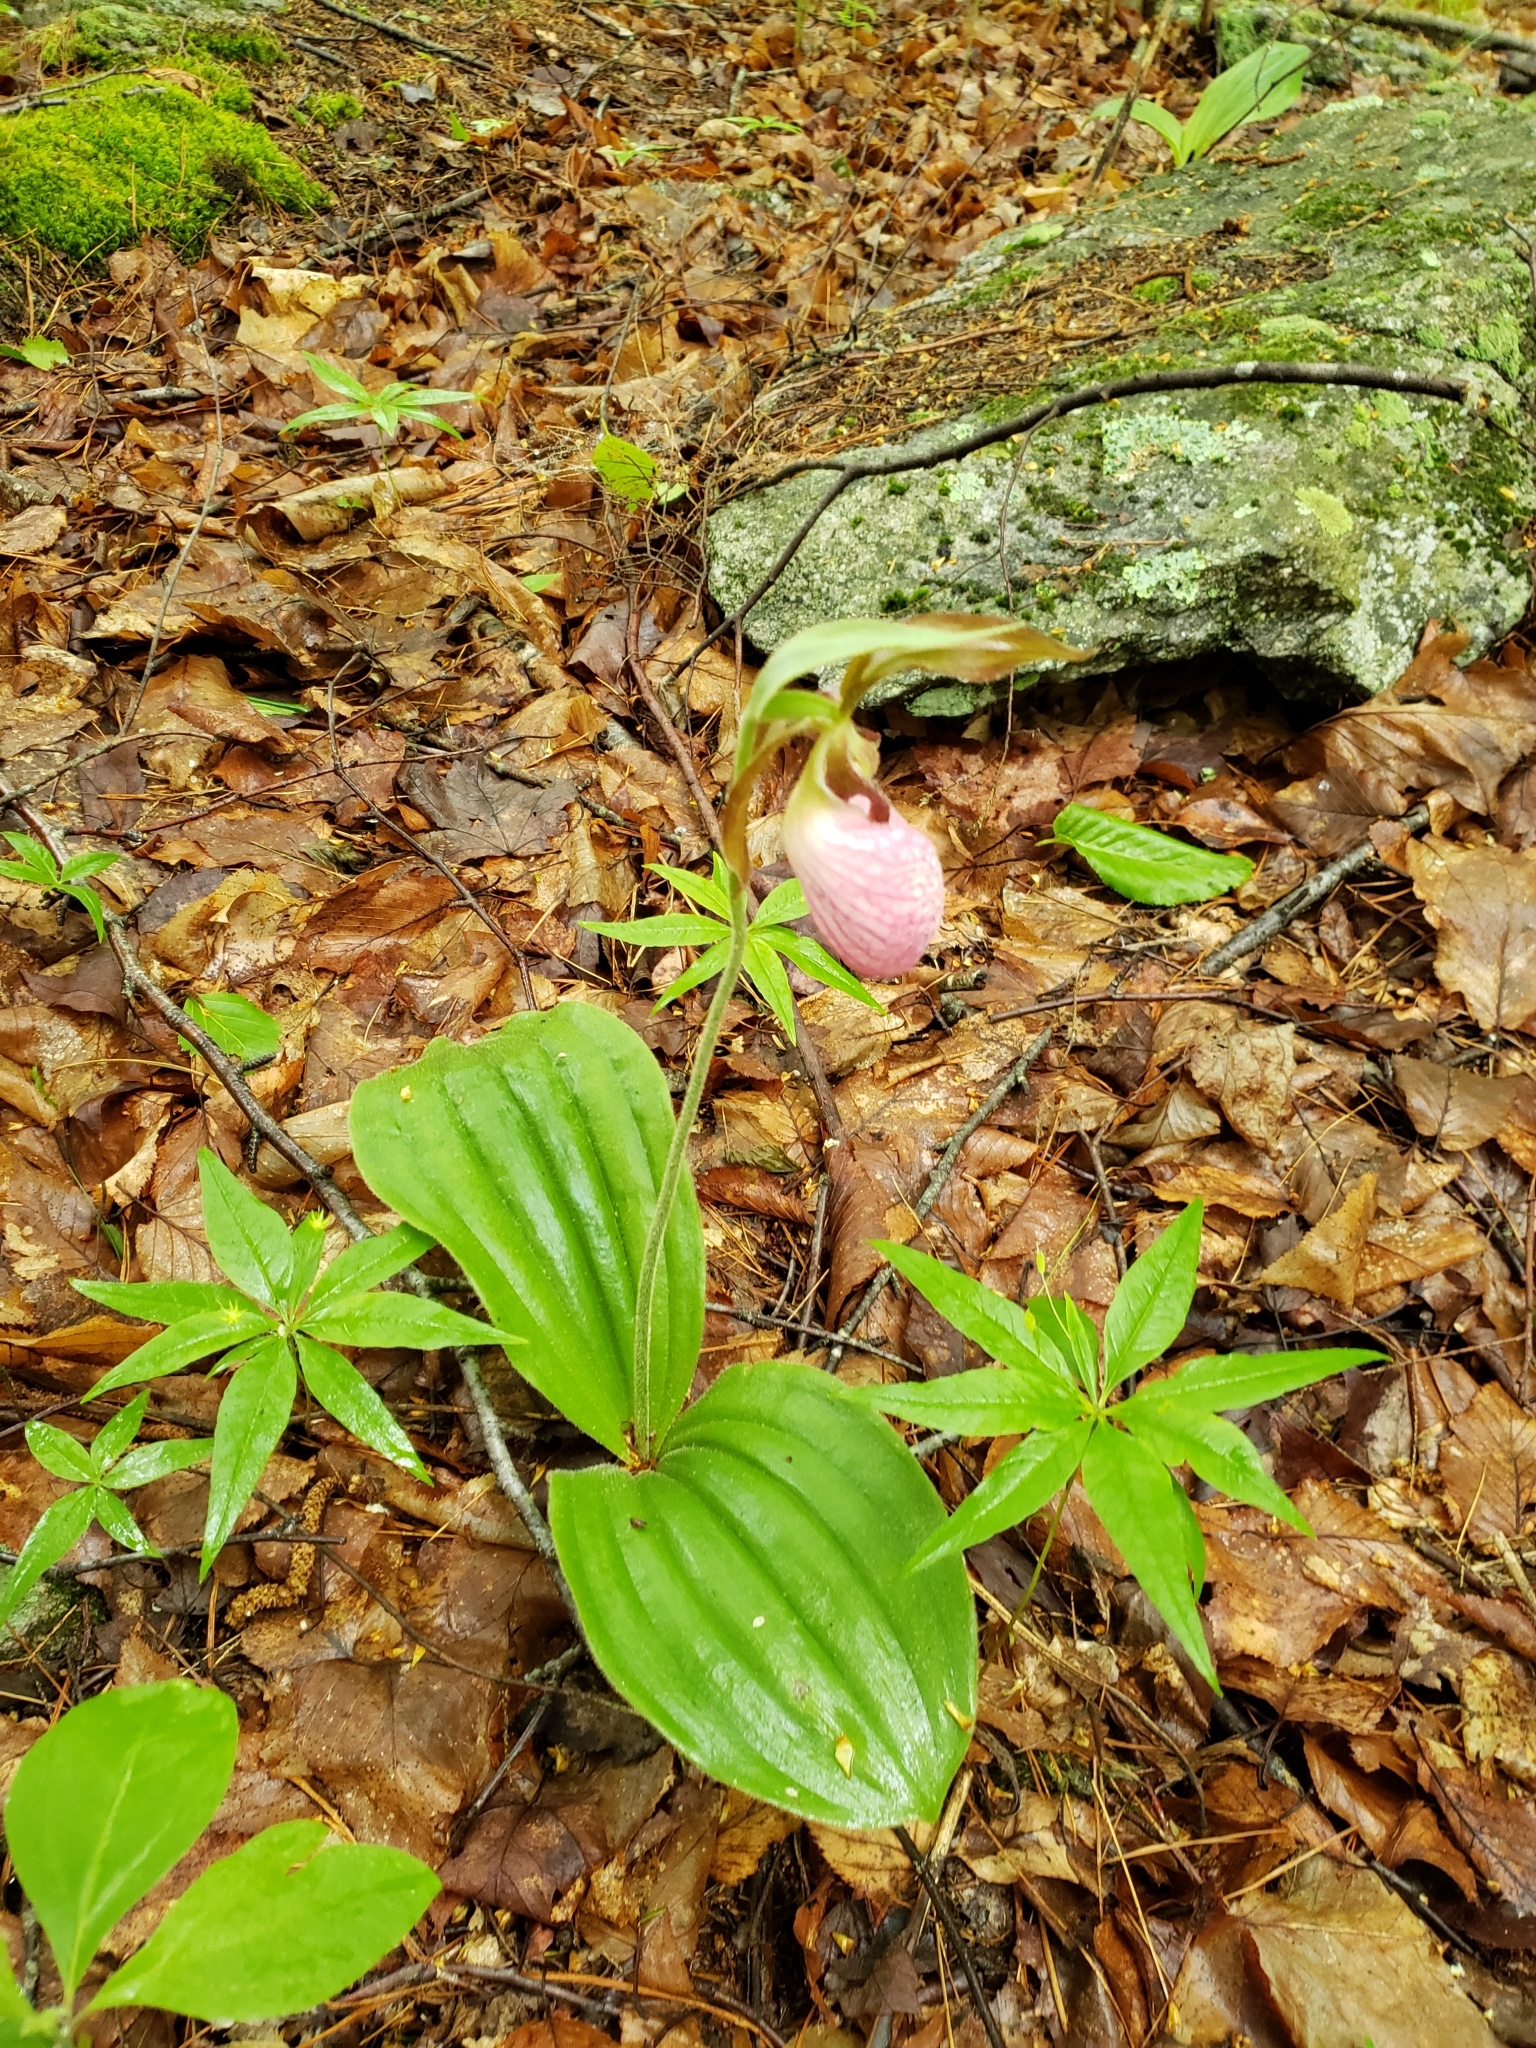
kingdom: Plantae
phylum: Tracheophyta
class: Liliopsida
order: Asparagales
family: Orchidaceae
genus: Cypripedium
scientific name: Cypripedium acaule
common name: Pink lady's-slipper
